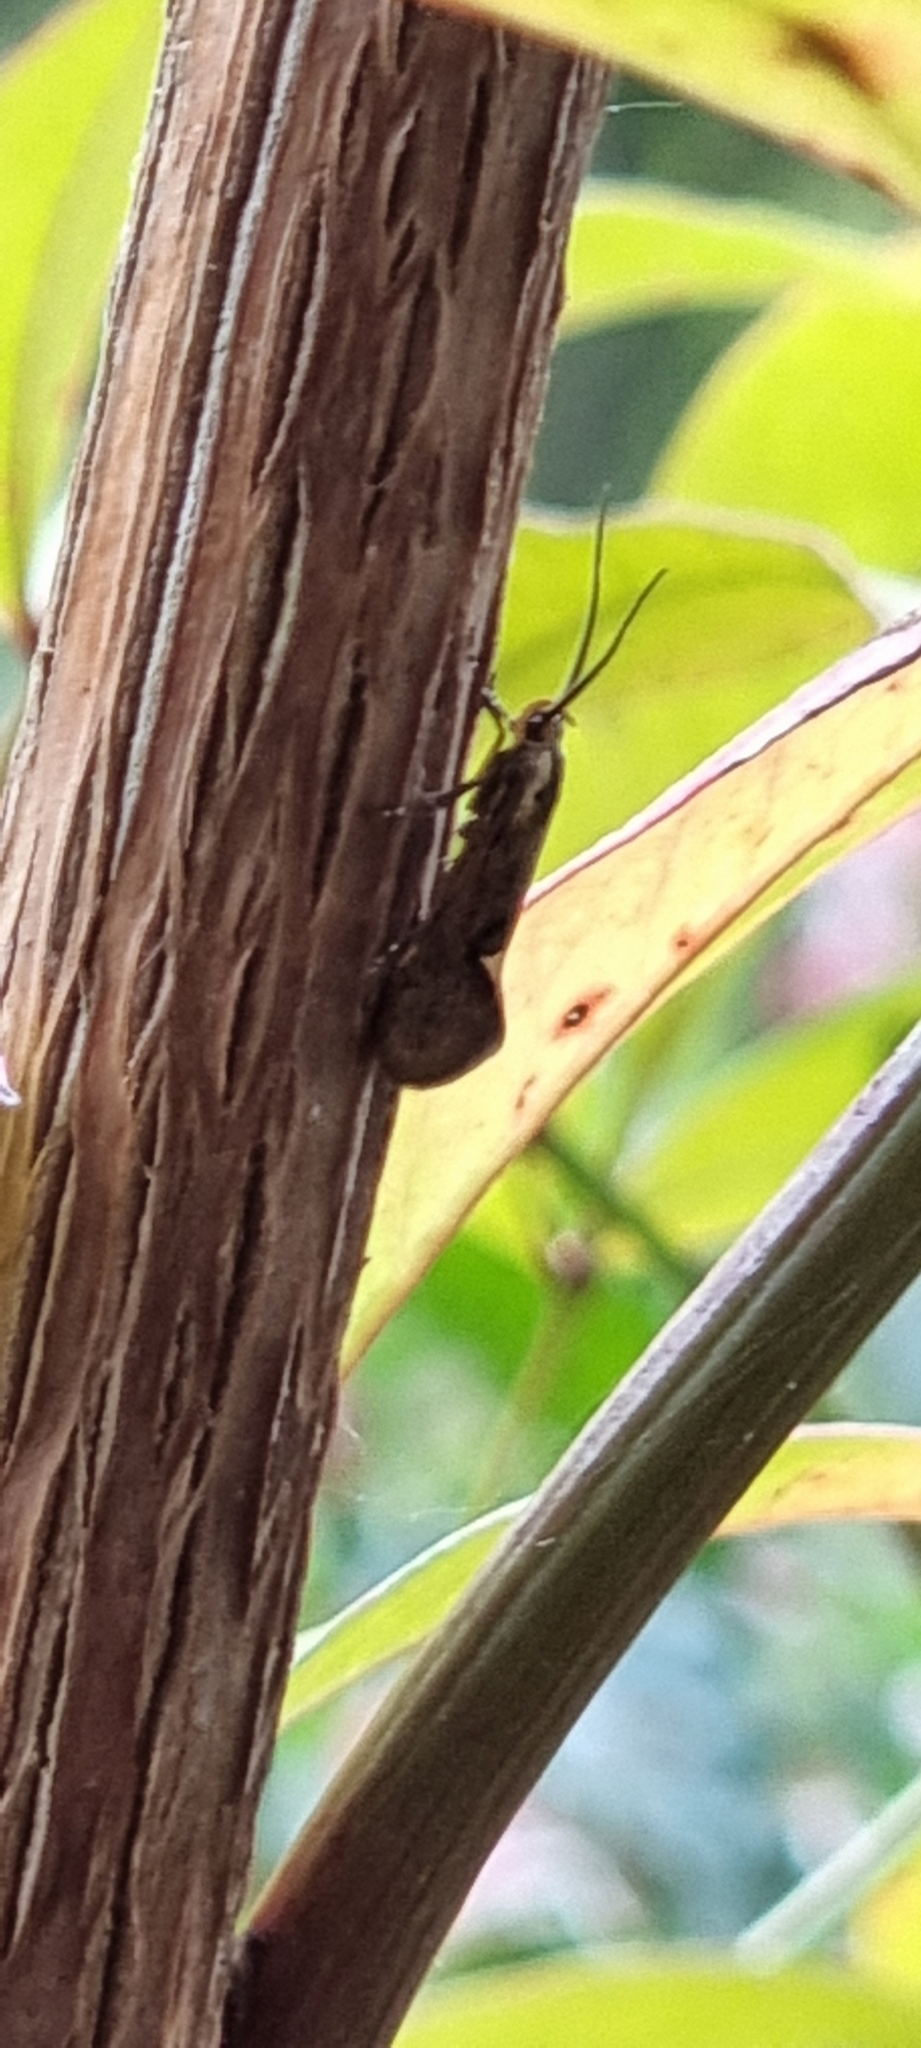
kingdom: Animalia
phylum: Arthropoda
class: Insecta
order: Lepidoptera
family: Oecophoridae
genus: Dafa
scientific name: Dafa Esperia sulphurella
